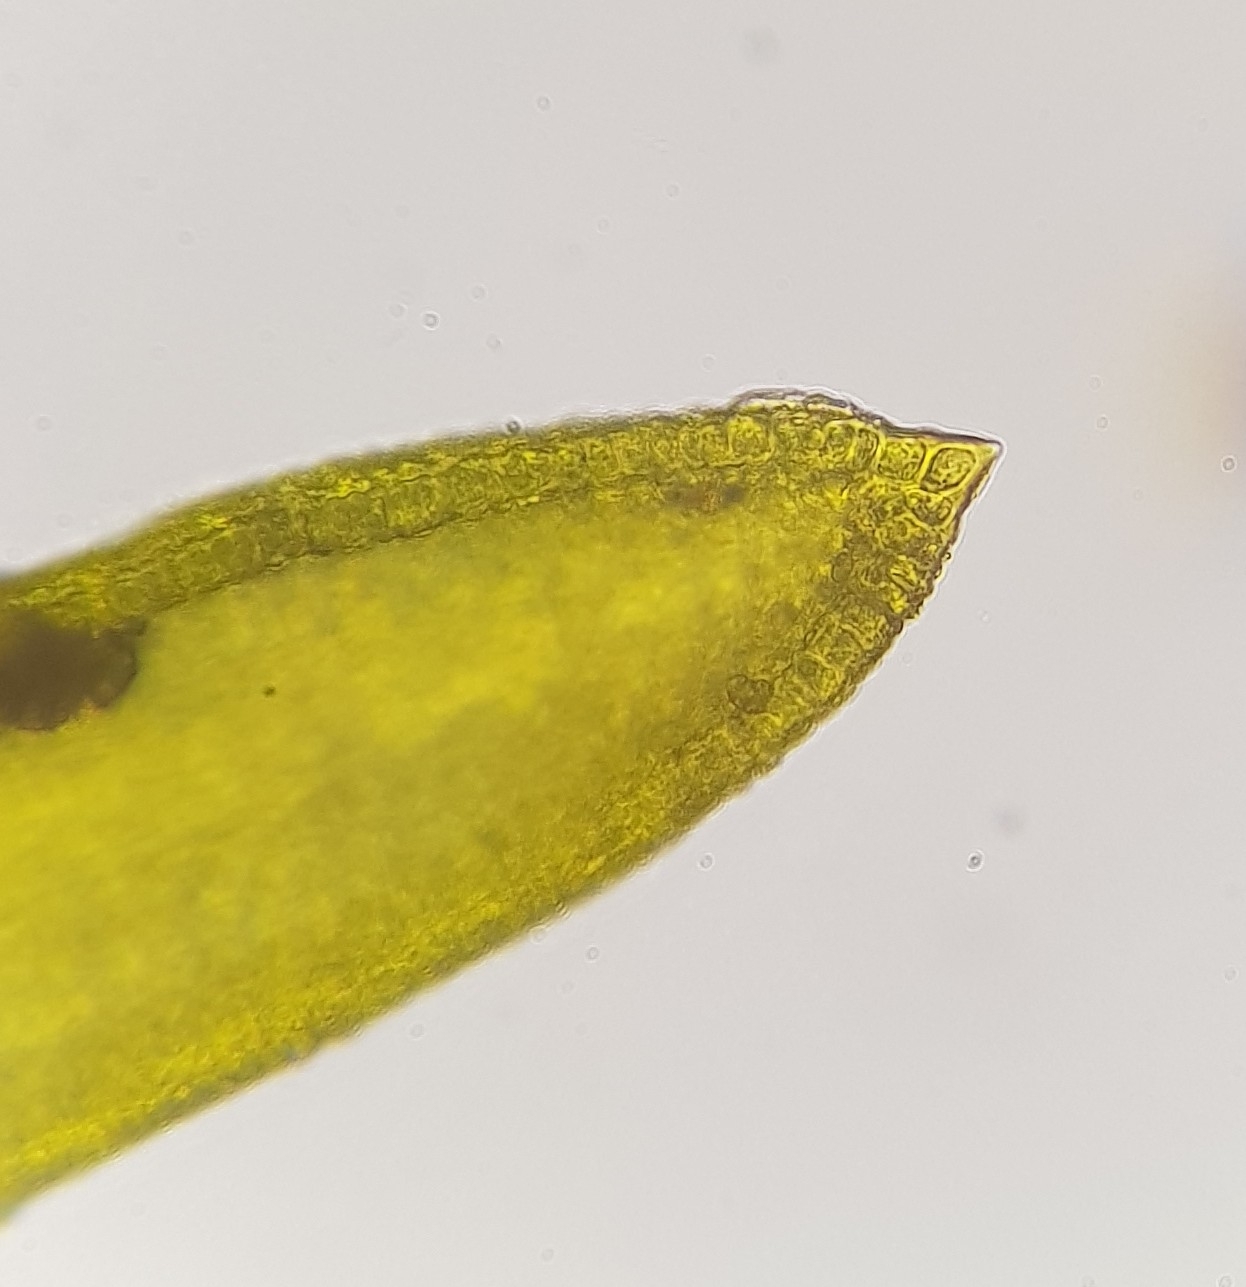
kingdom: Plantae
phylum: Bryophyta
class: Bryopsida
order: Pottiales
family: Pottiaceae
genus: Trichostomum
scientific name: Trichostomum crispulum
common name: Curly crisp-moss
